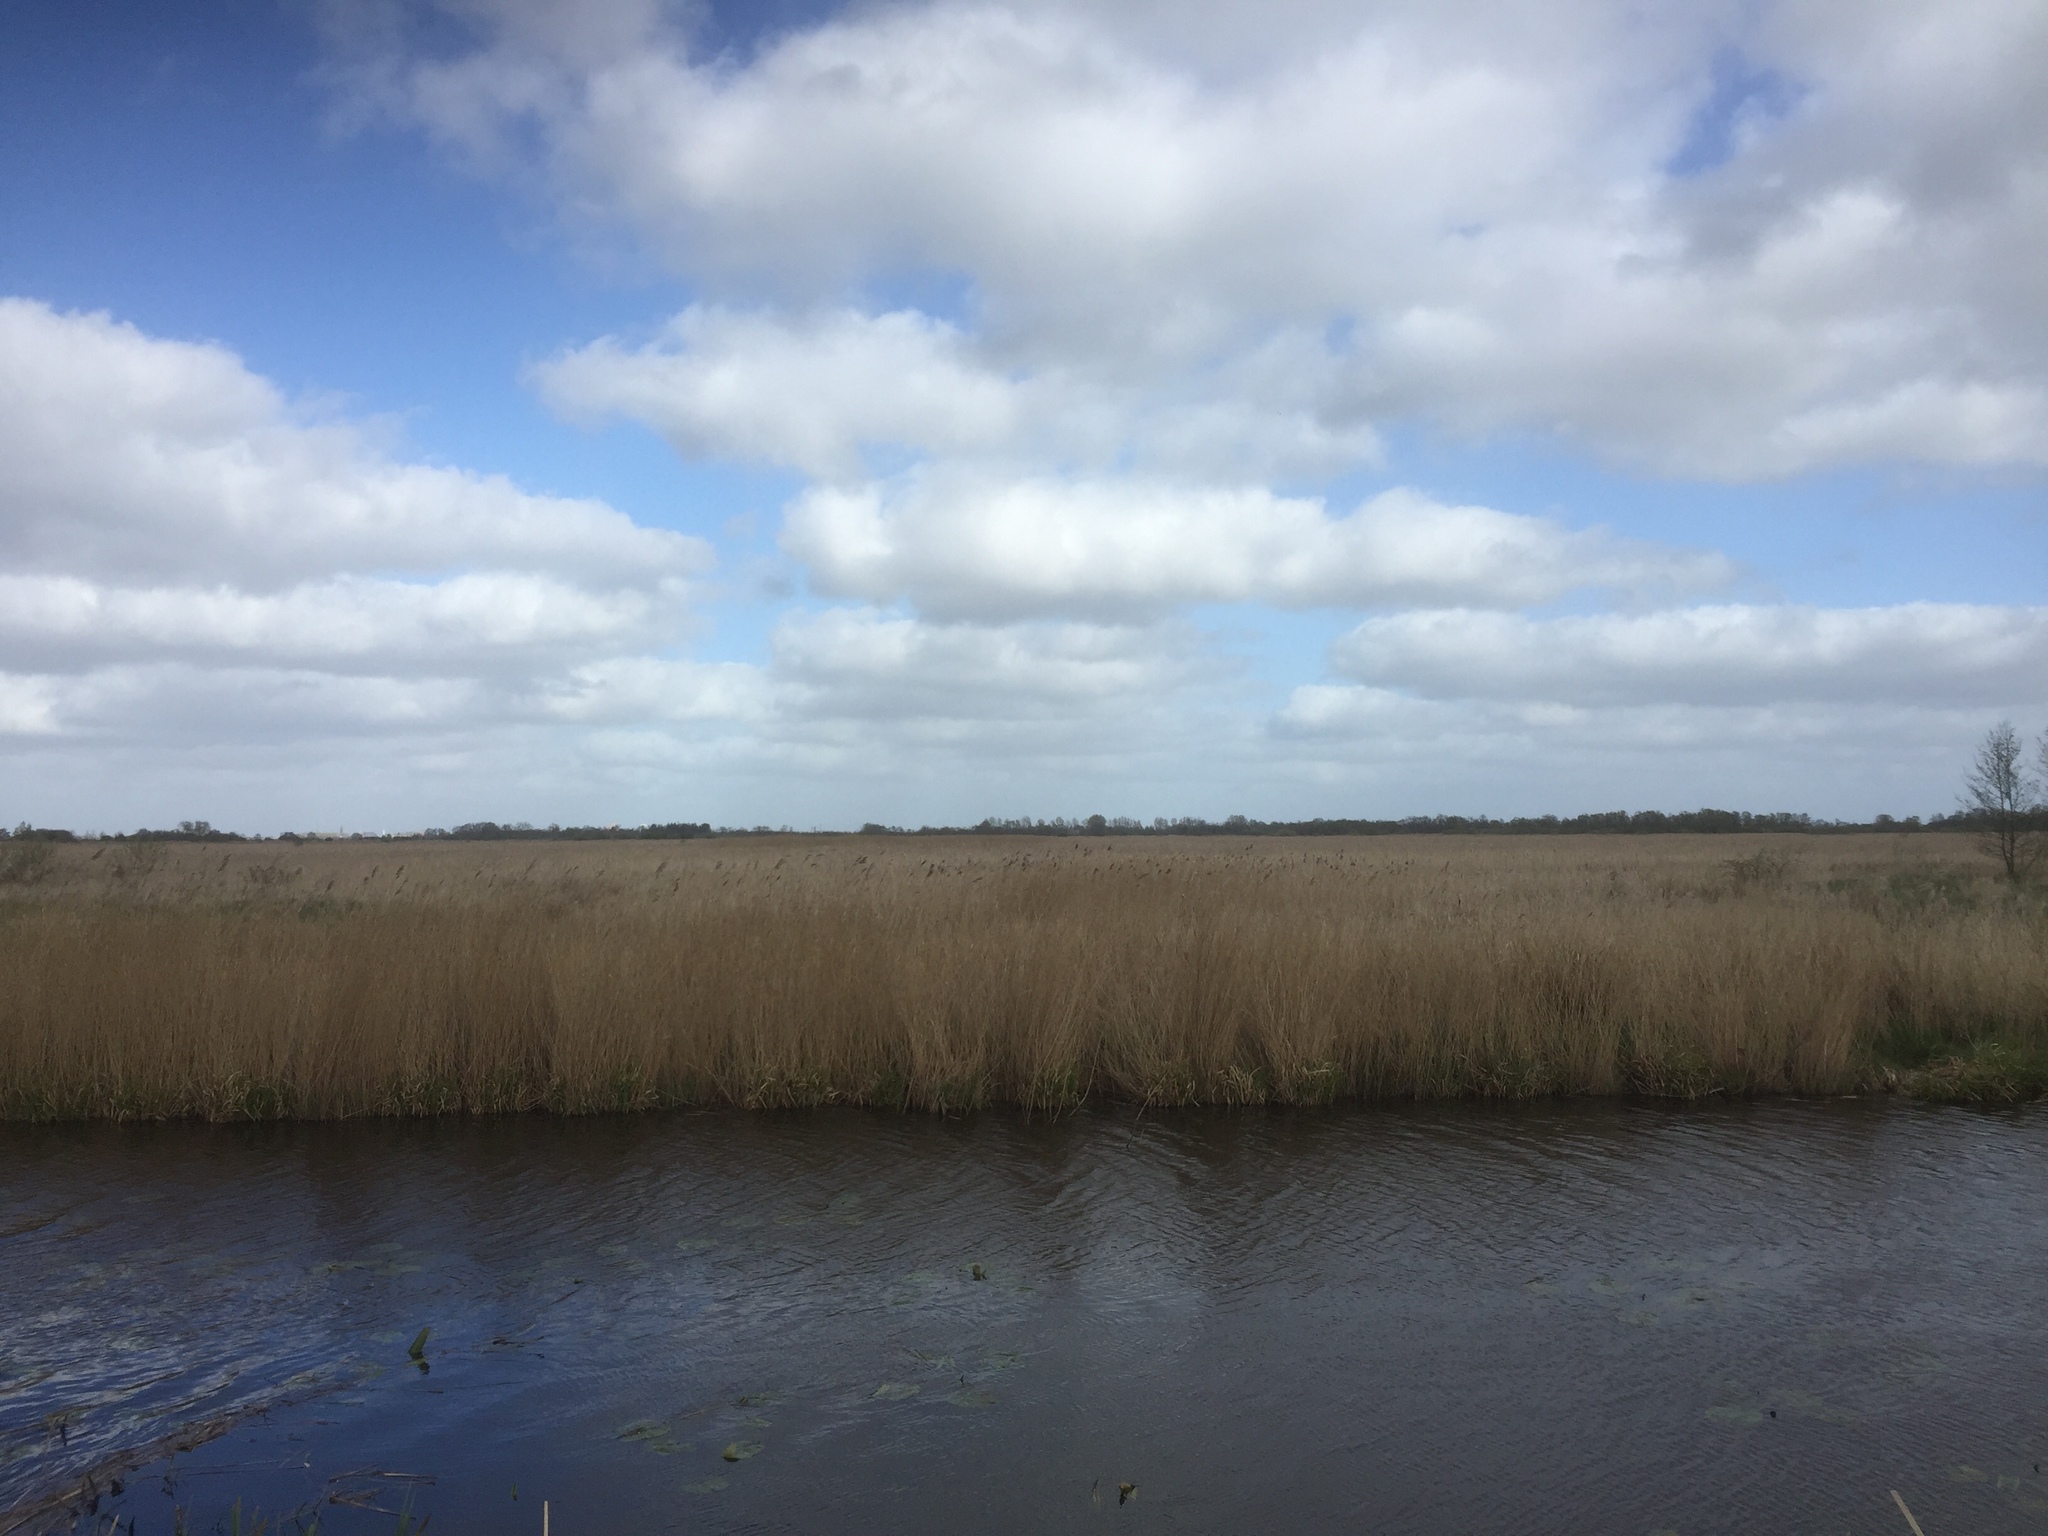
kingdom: Plantae
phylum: Tracheophyta
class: Liliopsida
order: Poales
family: Poaceae
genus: Phragmites
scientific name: Phragmites australis
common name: Common reed
